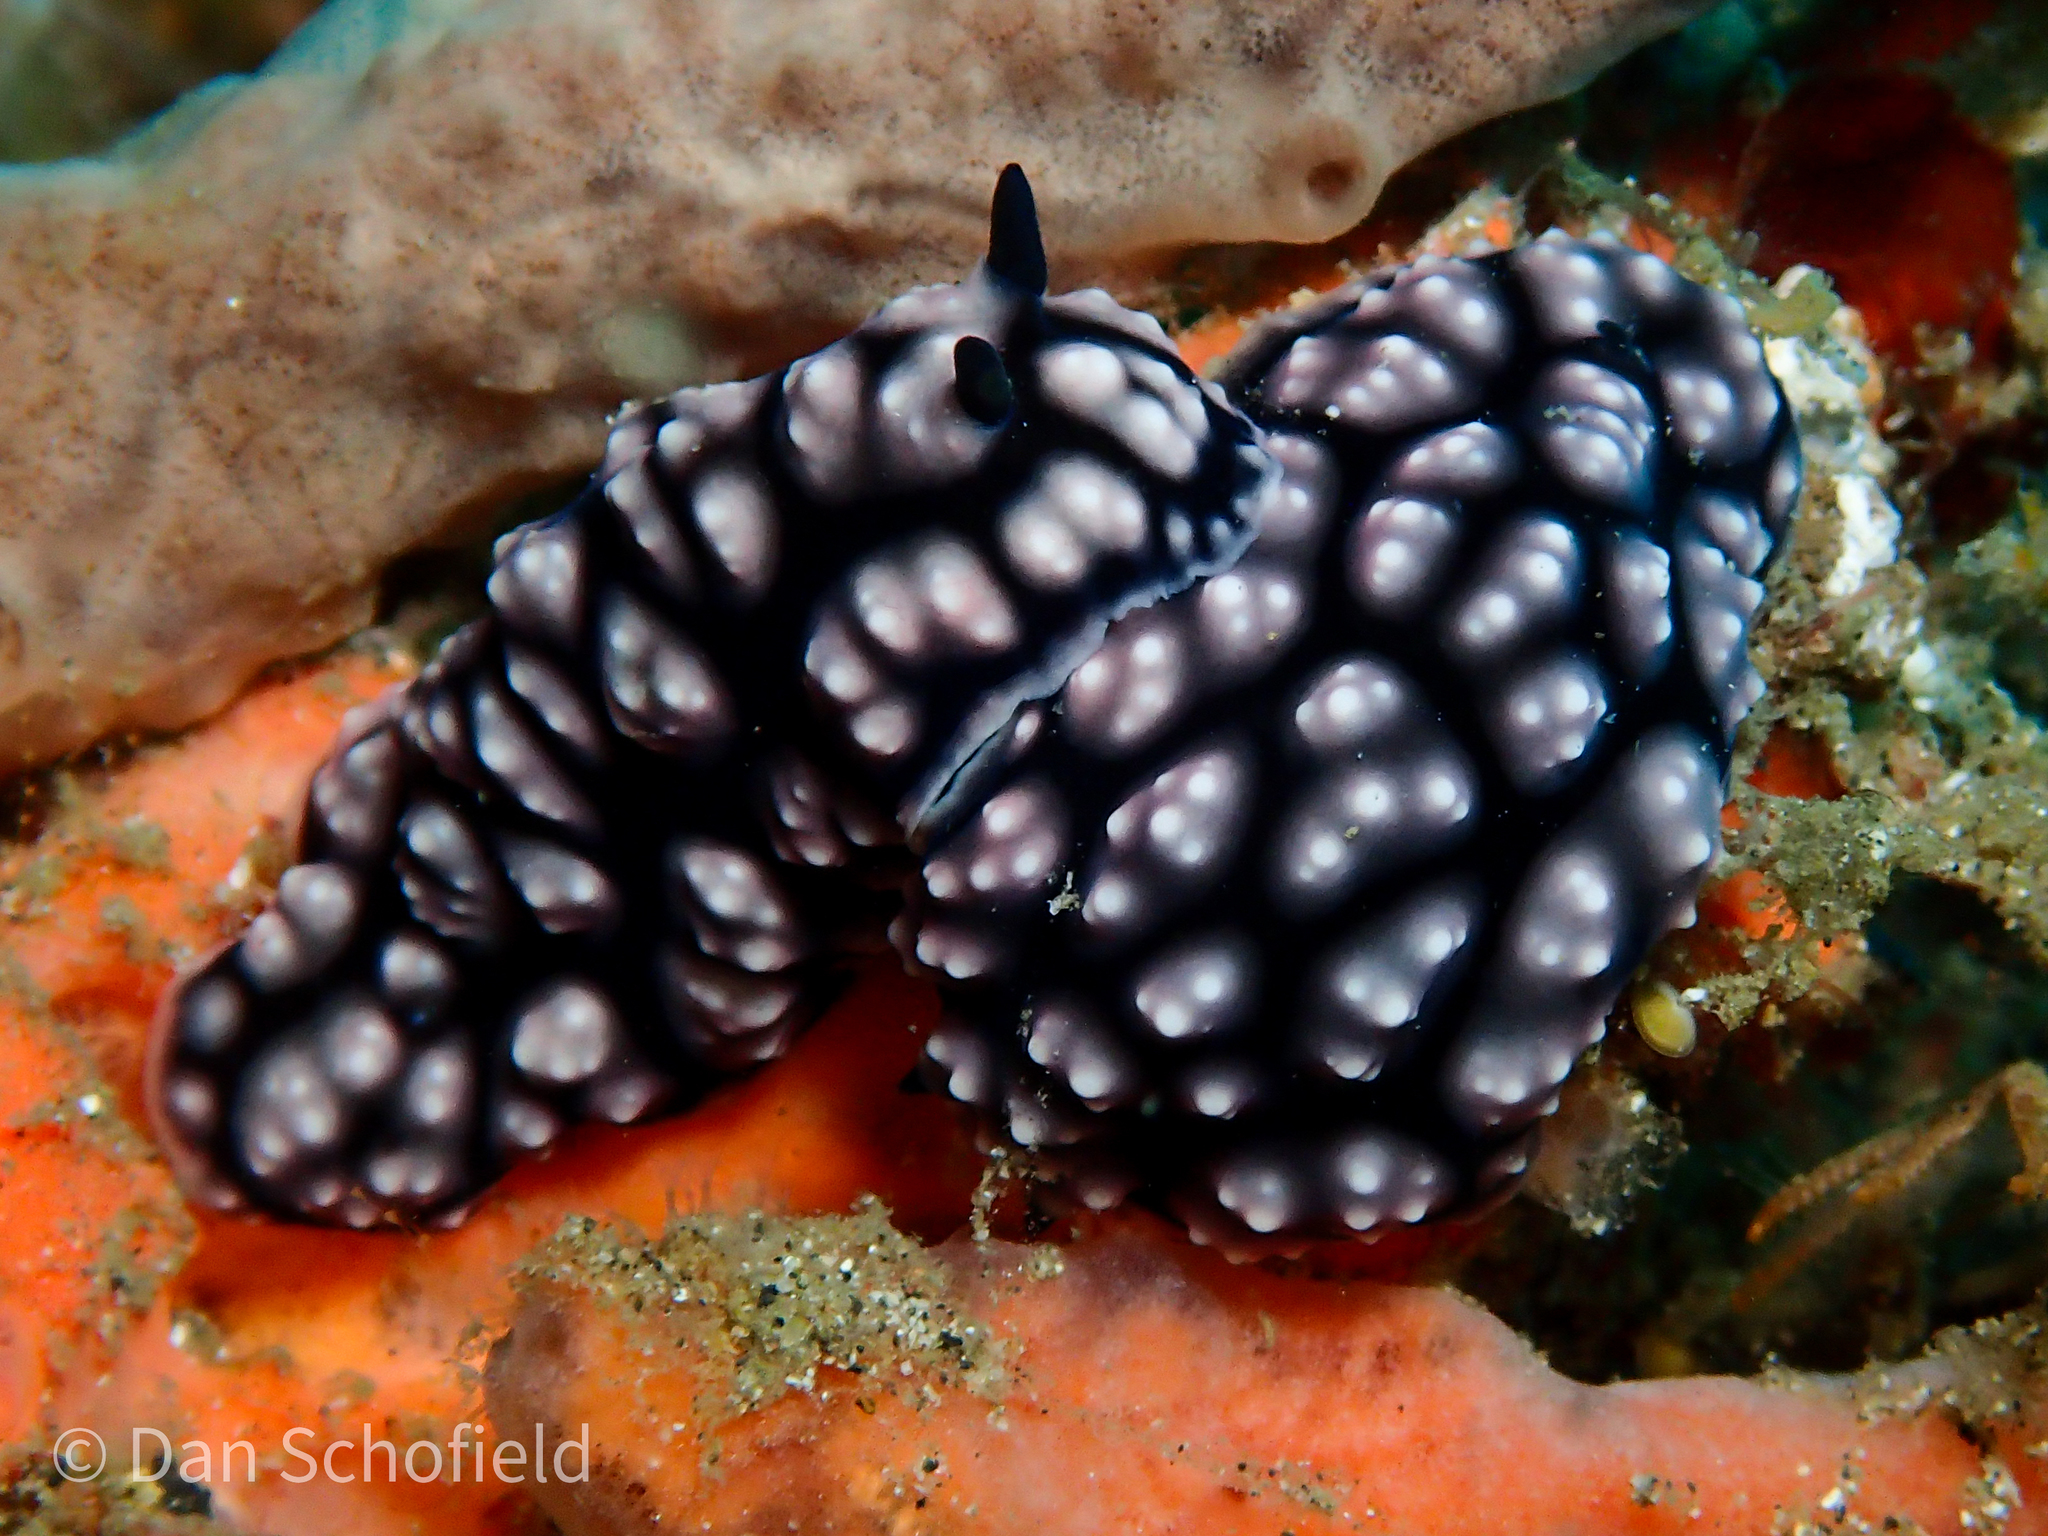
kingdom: Animalia
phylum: Mollusca
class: Gastropoda
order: Nudibranchia
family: Phyllidiidae
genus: Phyllidiella
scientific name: Phyllidiella pustulosa
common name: Pustular phyllidia
